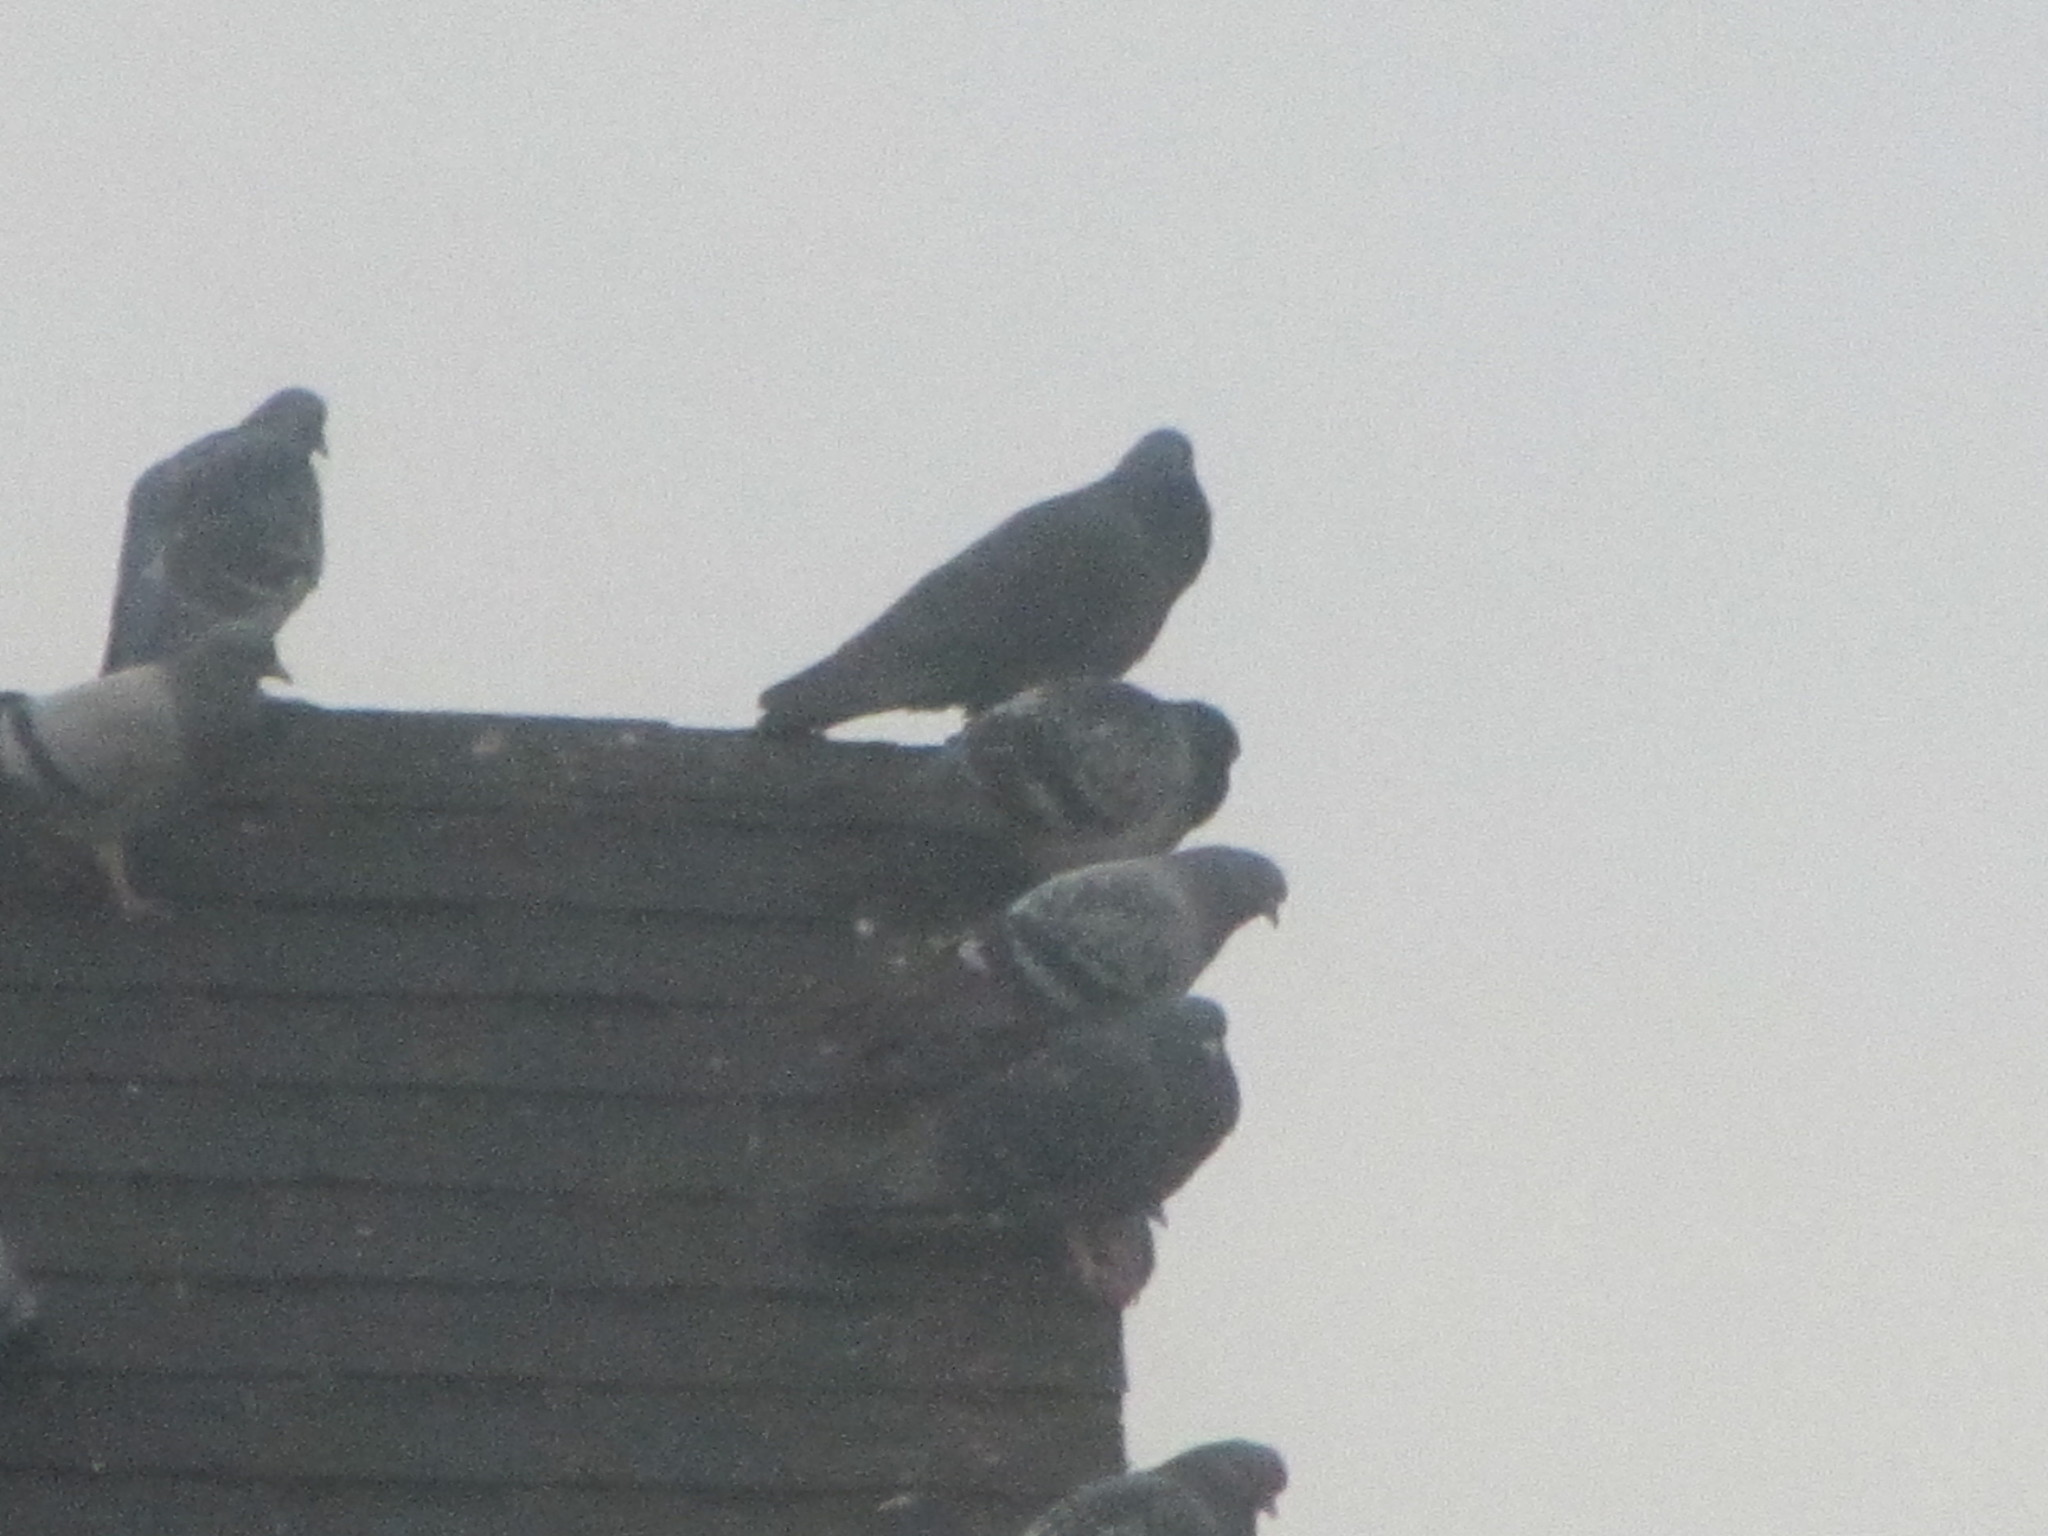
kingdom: Animalia
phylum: Chordata
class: Aves
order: Columbiformes
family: Columbidae
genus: Columba
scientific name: Columba livia
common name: Rock pigeon
